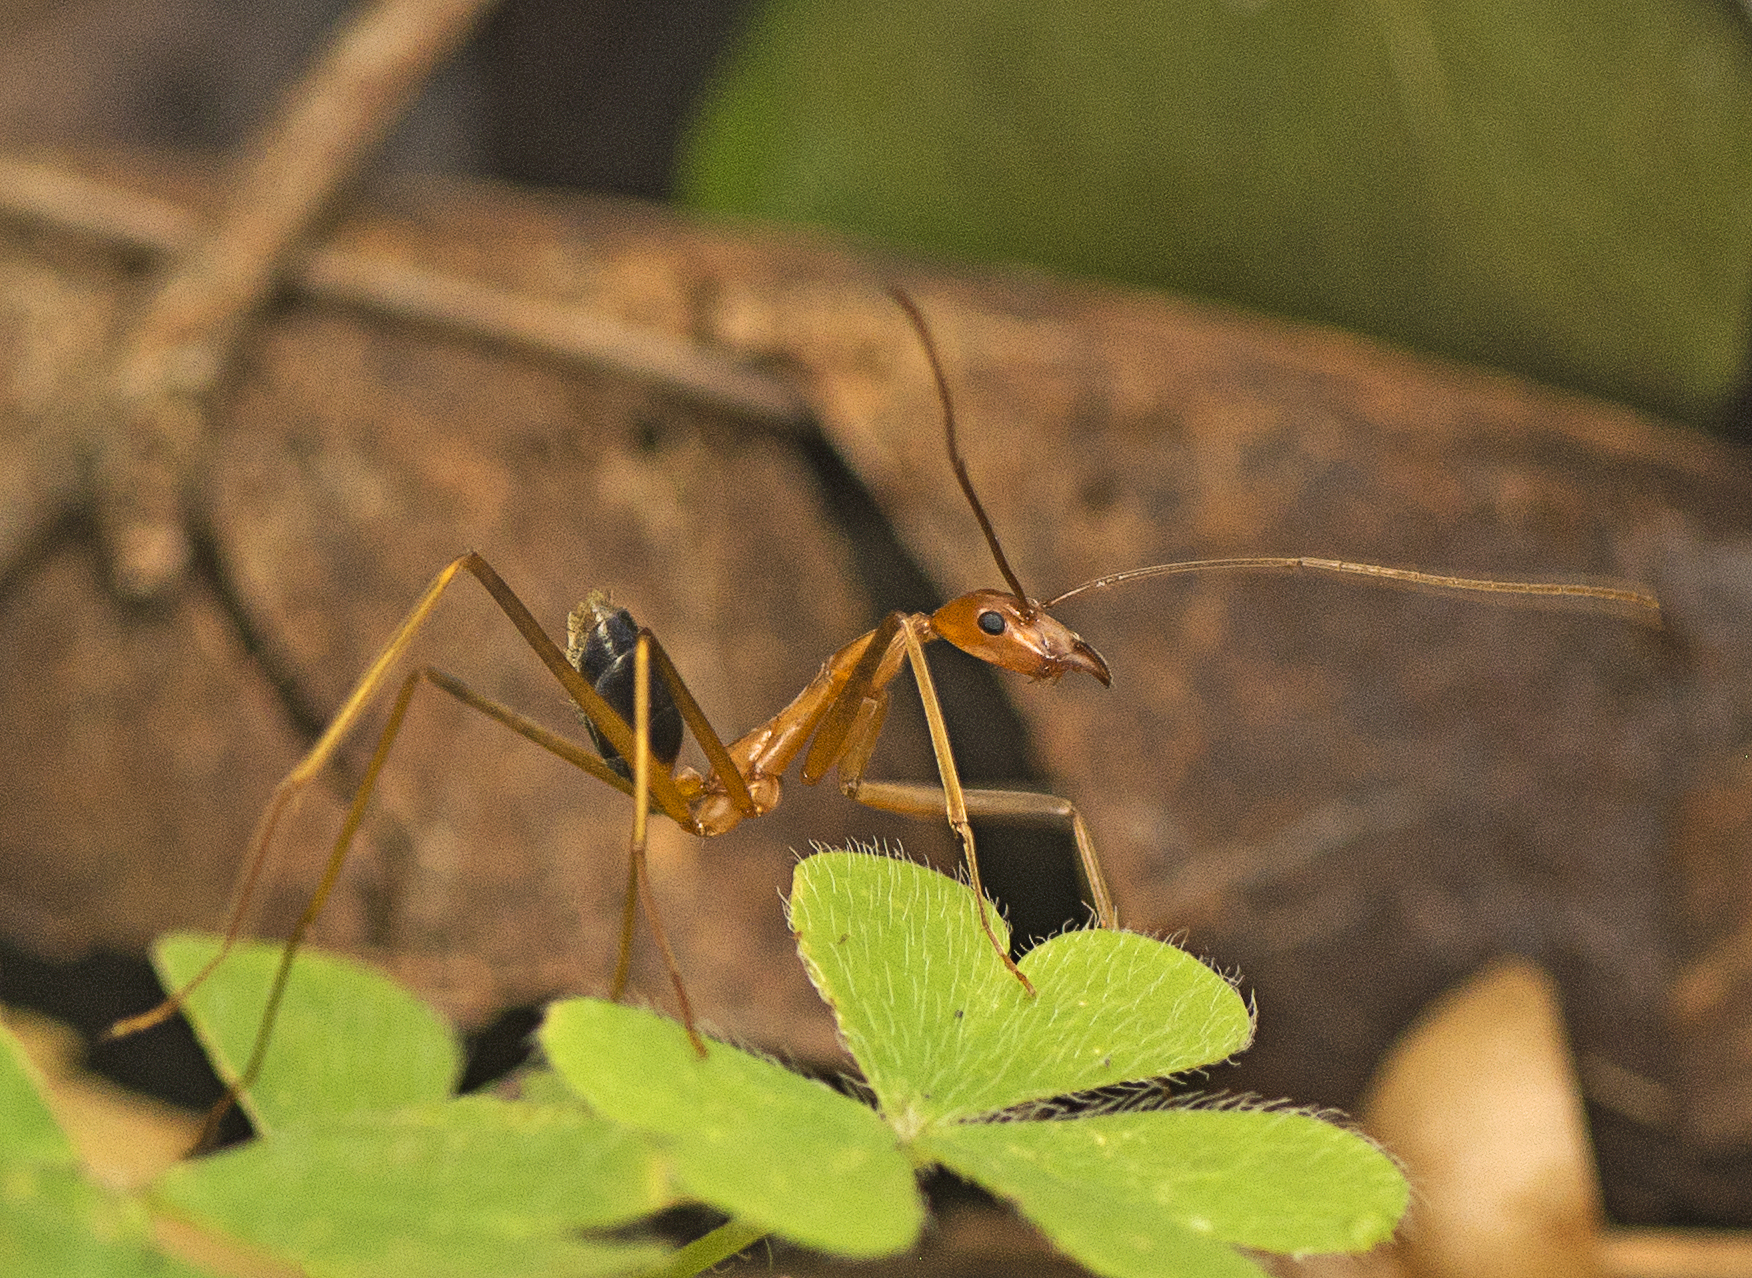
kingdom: Animalia
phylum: Arthropoda
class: Insecta
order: Hymenoptera
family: Formicidae
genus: Leptomyrmex
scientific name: Leptomyrmex rufipes
